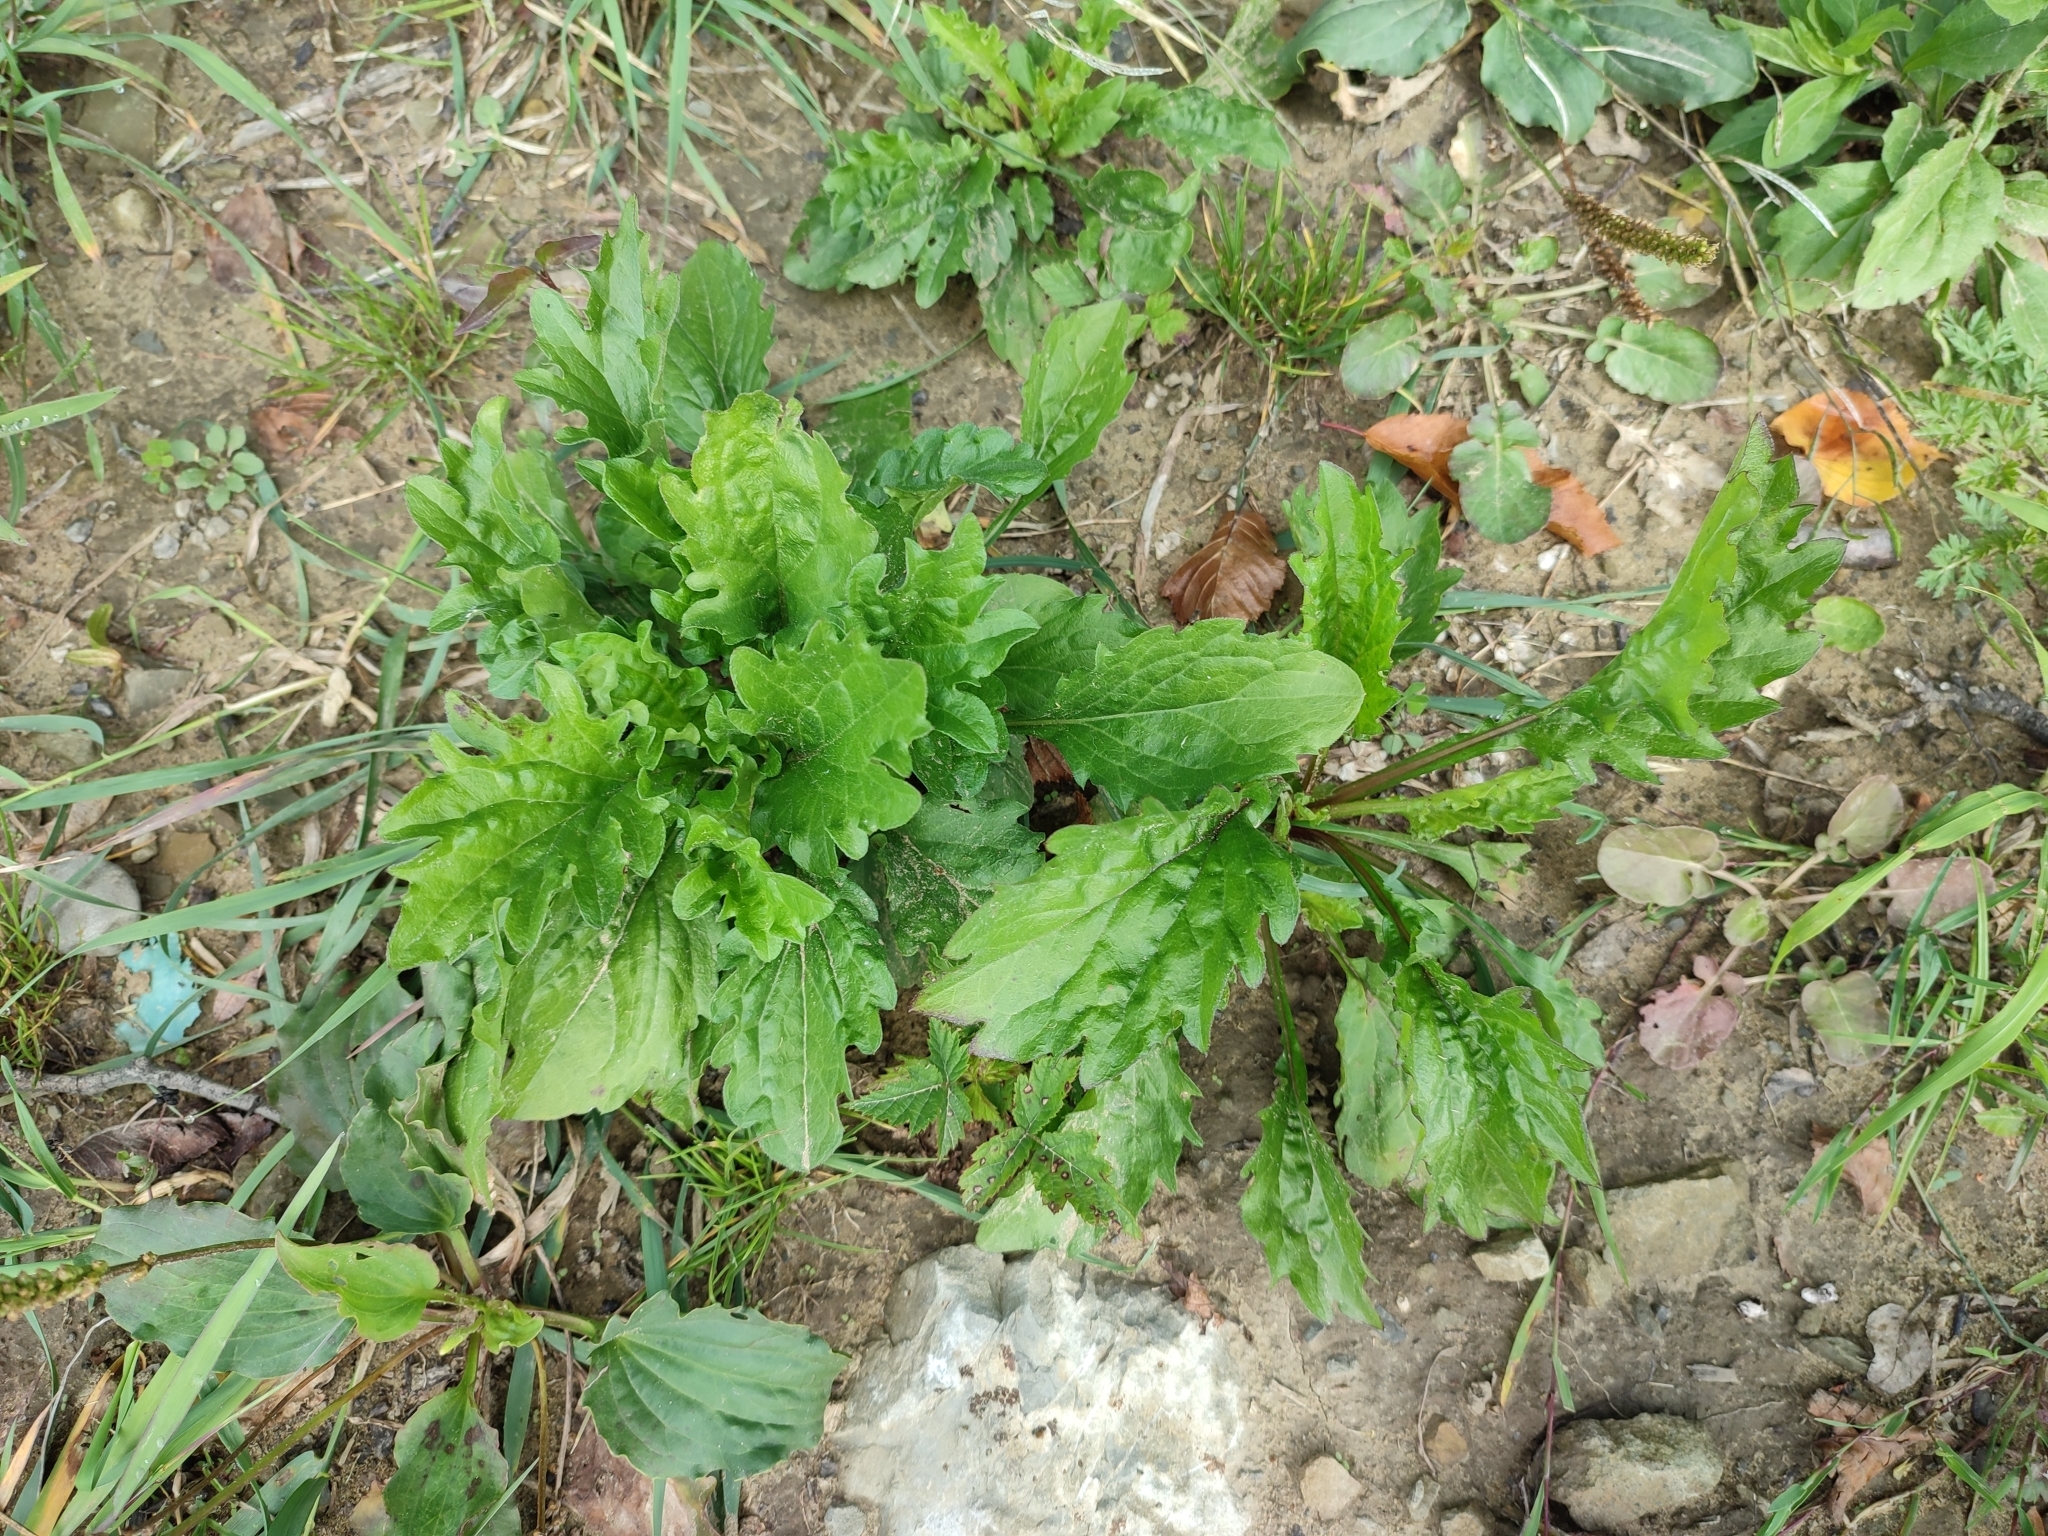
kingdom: Plantae
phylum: Tracheophyta
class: Magnoliopsida
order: Asterales
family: Asteraceae
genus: Erigeron
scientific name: Erigeron annuus
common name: Tall fleabane
